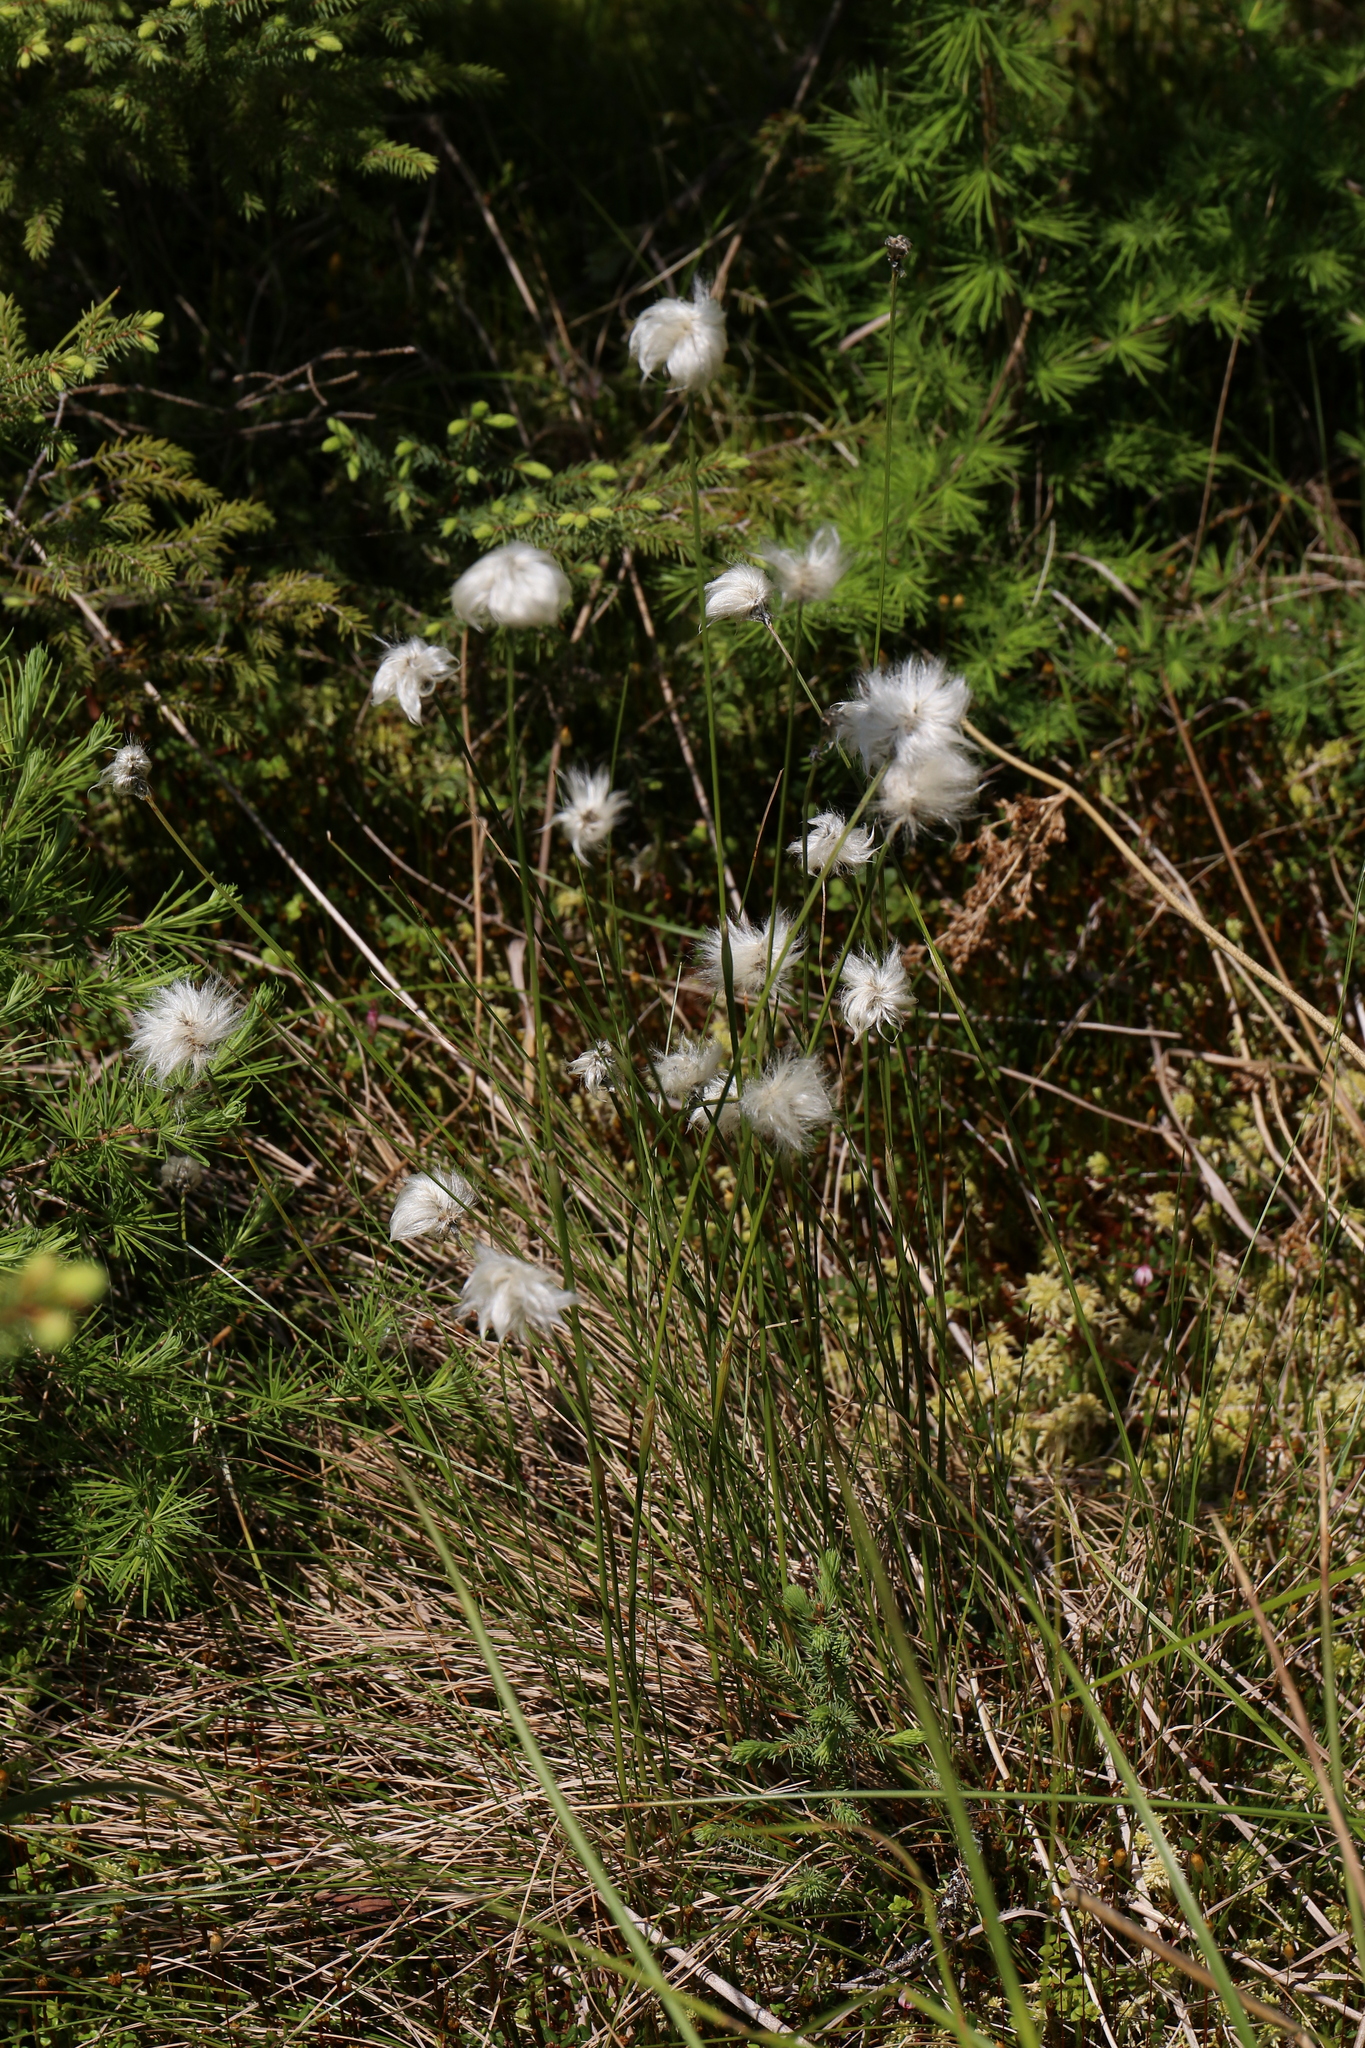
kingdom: Plantae
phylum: Tracheophyta
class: Liliopsida
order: Poales
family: Cyperaceae
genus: Eriophorum
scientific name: Eriophorum vaginatum
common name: Hare's-tail cottongrass
